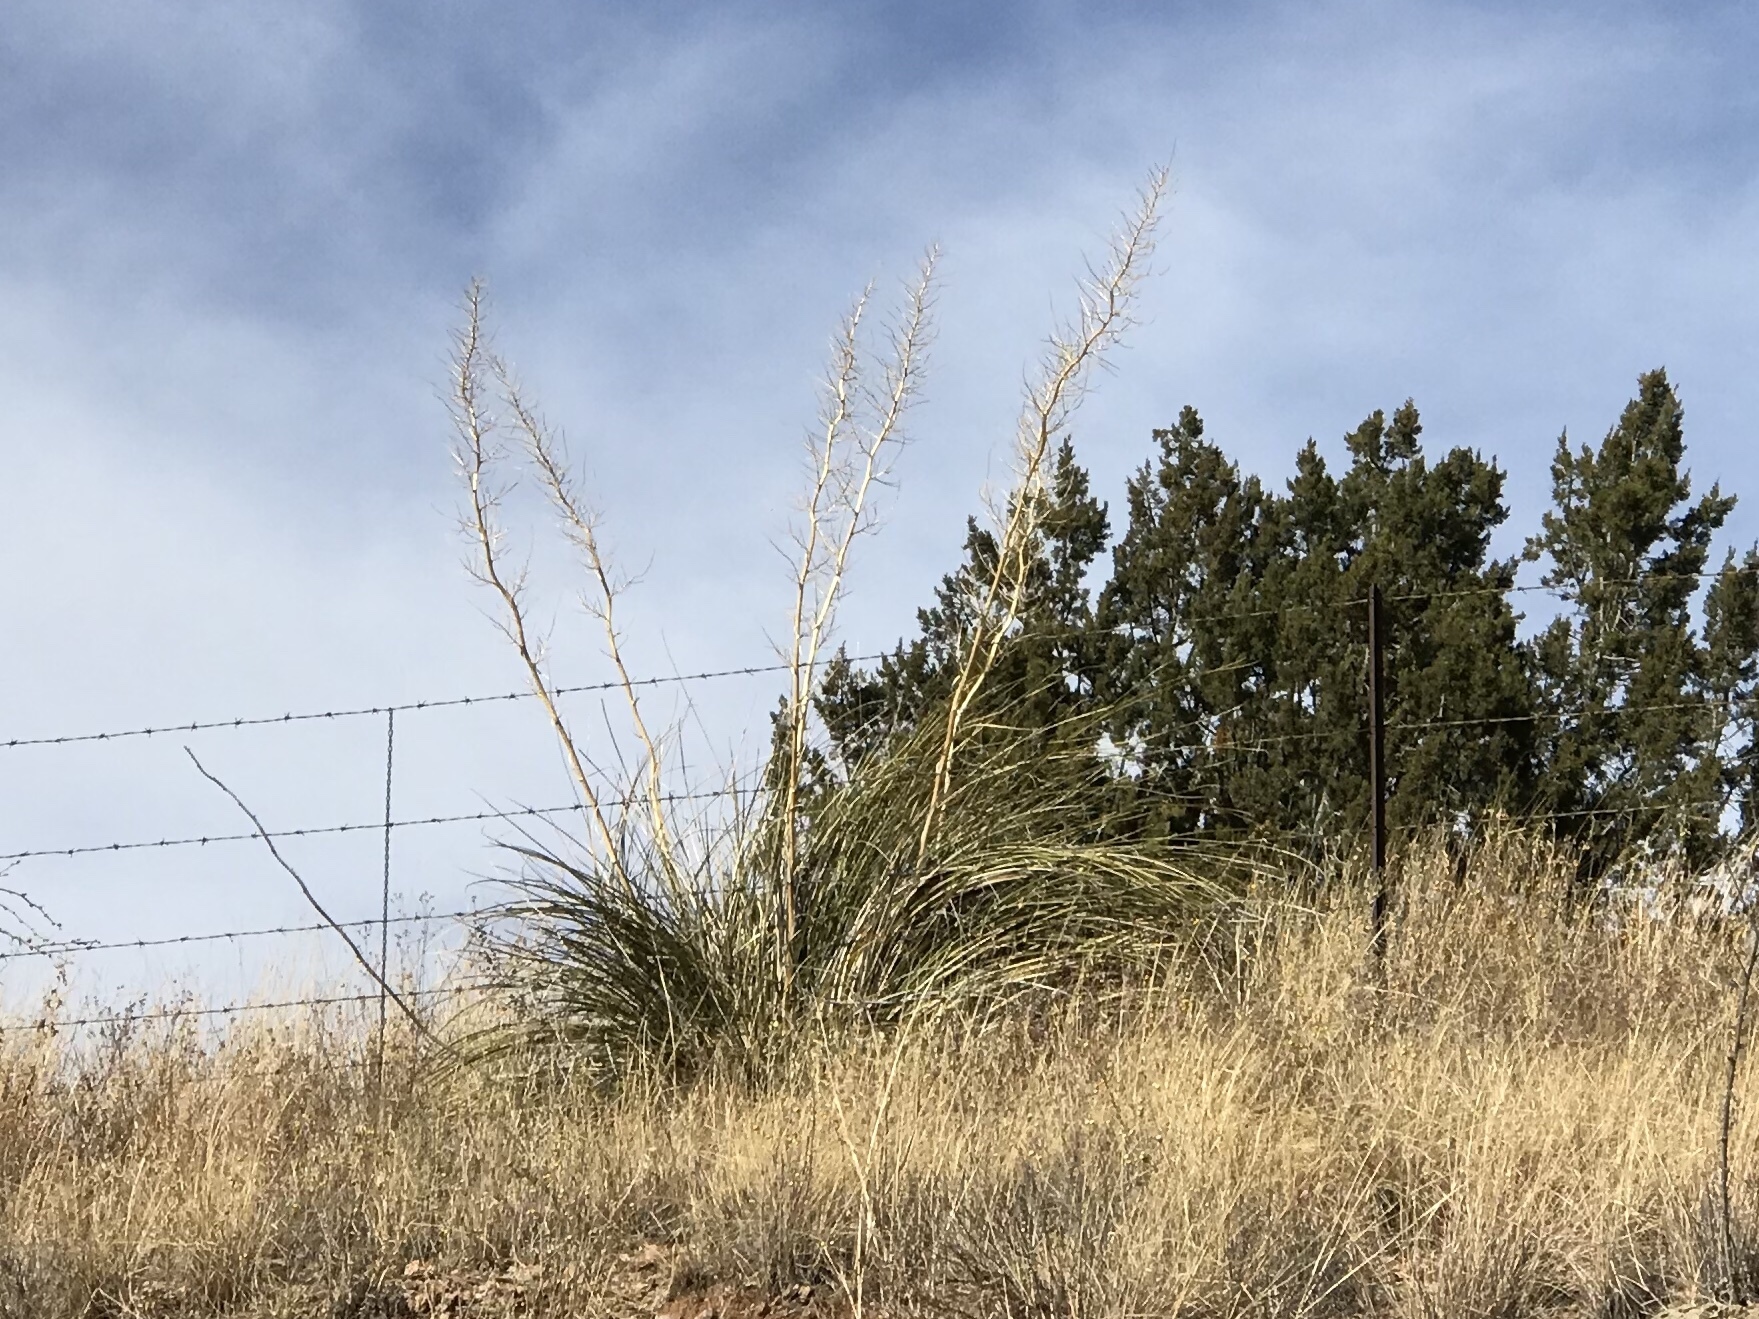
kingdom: Plantae
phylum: Tracheophyta
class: Liliopsida
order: Asparagales
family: Asparagaceae
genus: Nolina
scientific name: Nolina microcarpa
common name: Bear-grass
